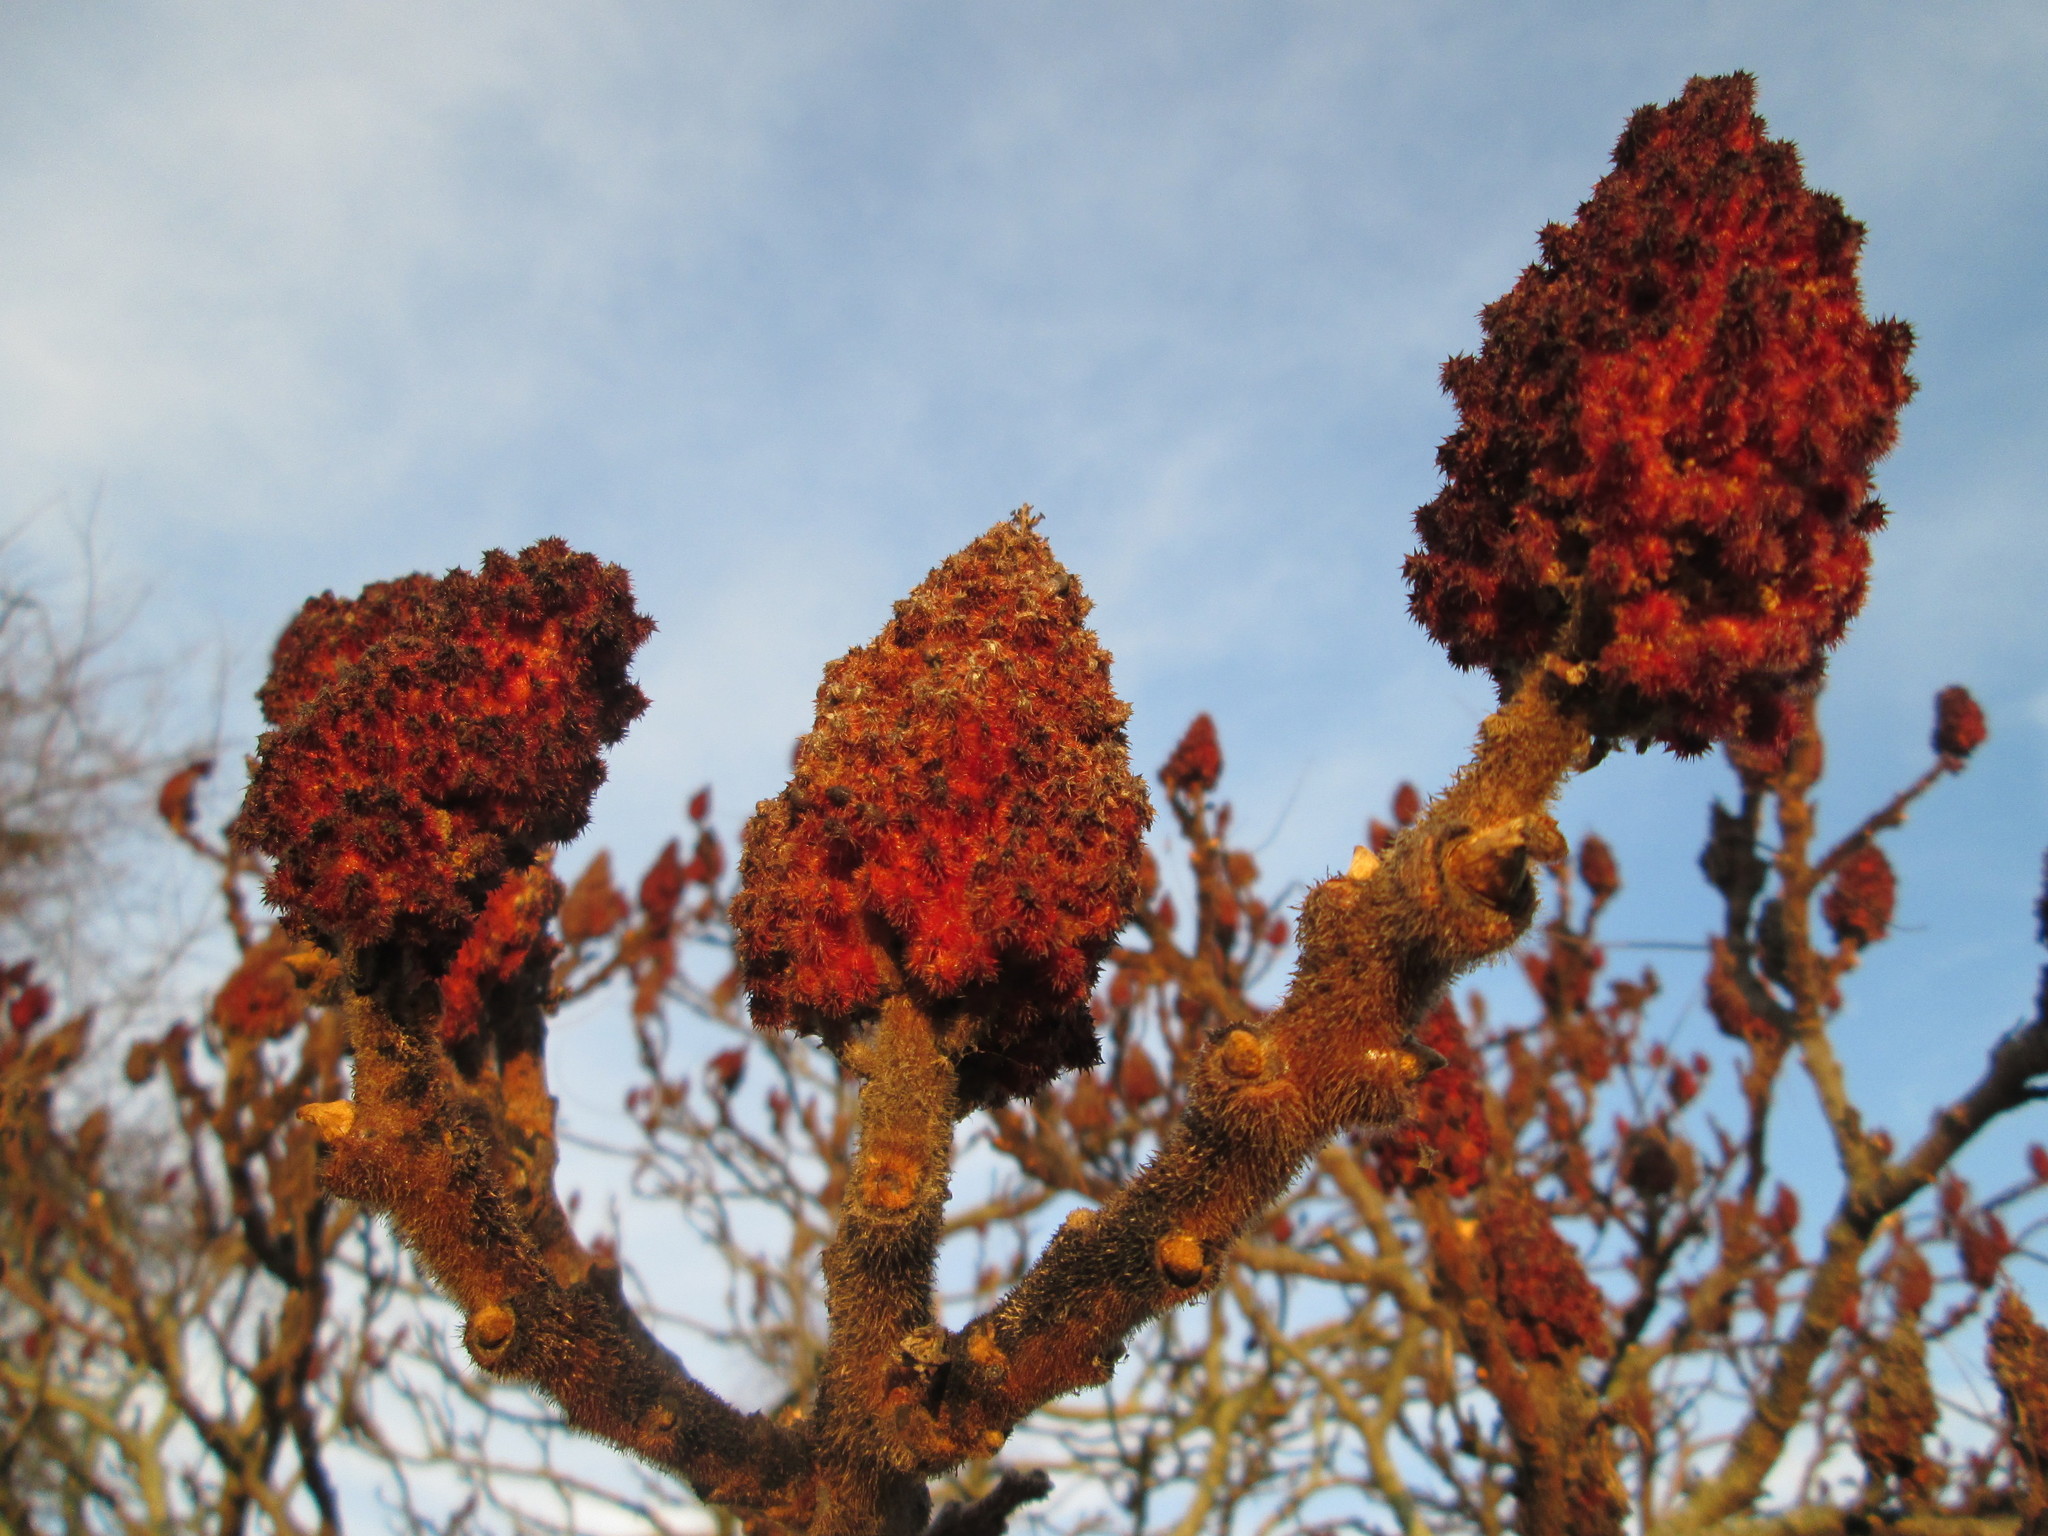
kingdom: Plantae
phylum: Tracheophyta
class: Magnoliopsida
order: Sapindales
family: Anacardiaceae
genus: Rhus
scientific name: Rhus typhina
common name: Staghorn sumac
